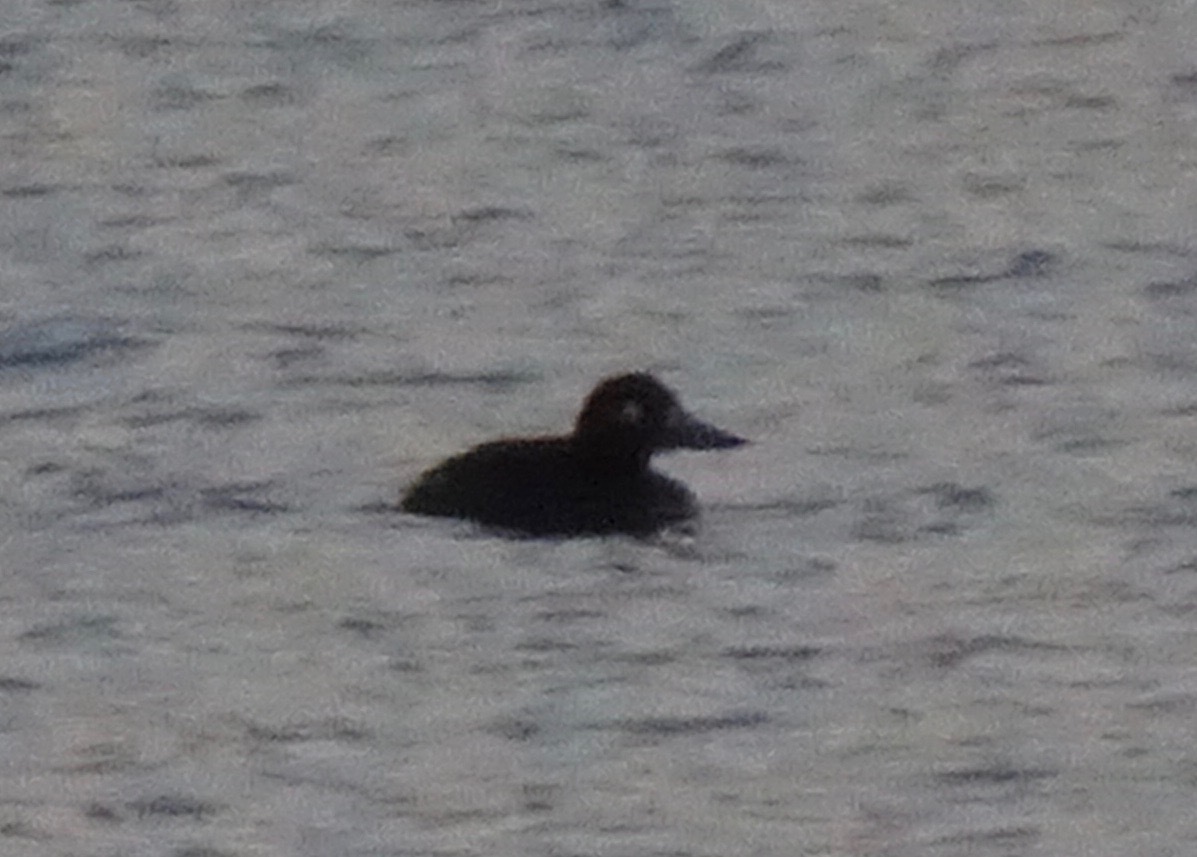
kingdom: Animalia
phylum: Chordata
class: Aves
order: Anseriformes
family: Anatidae
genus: Melanitta
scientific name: Melanitta fusca
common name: Velvet scoter
